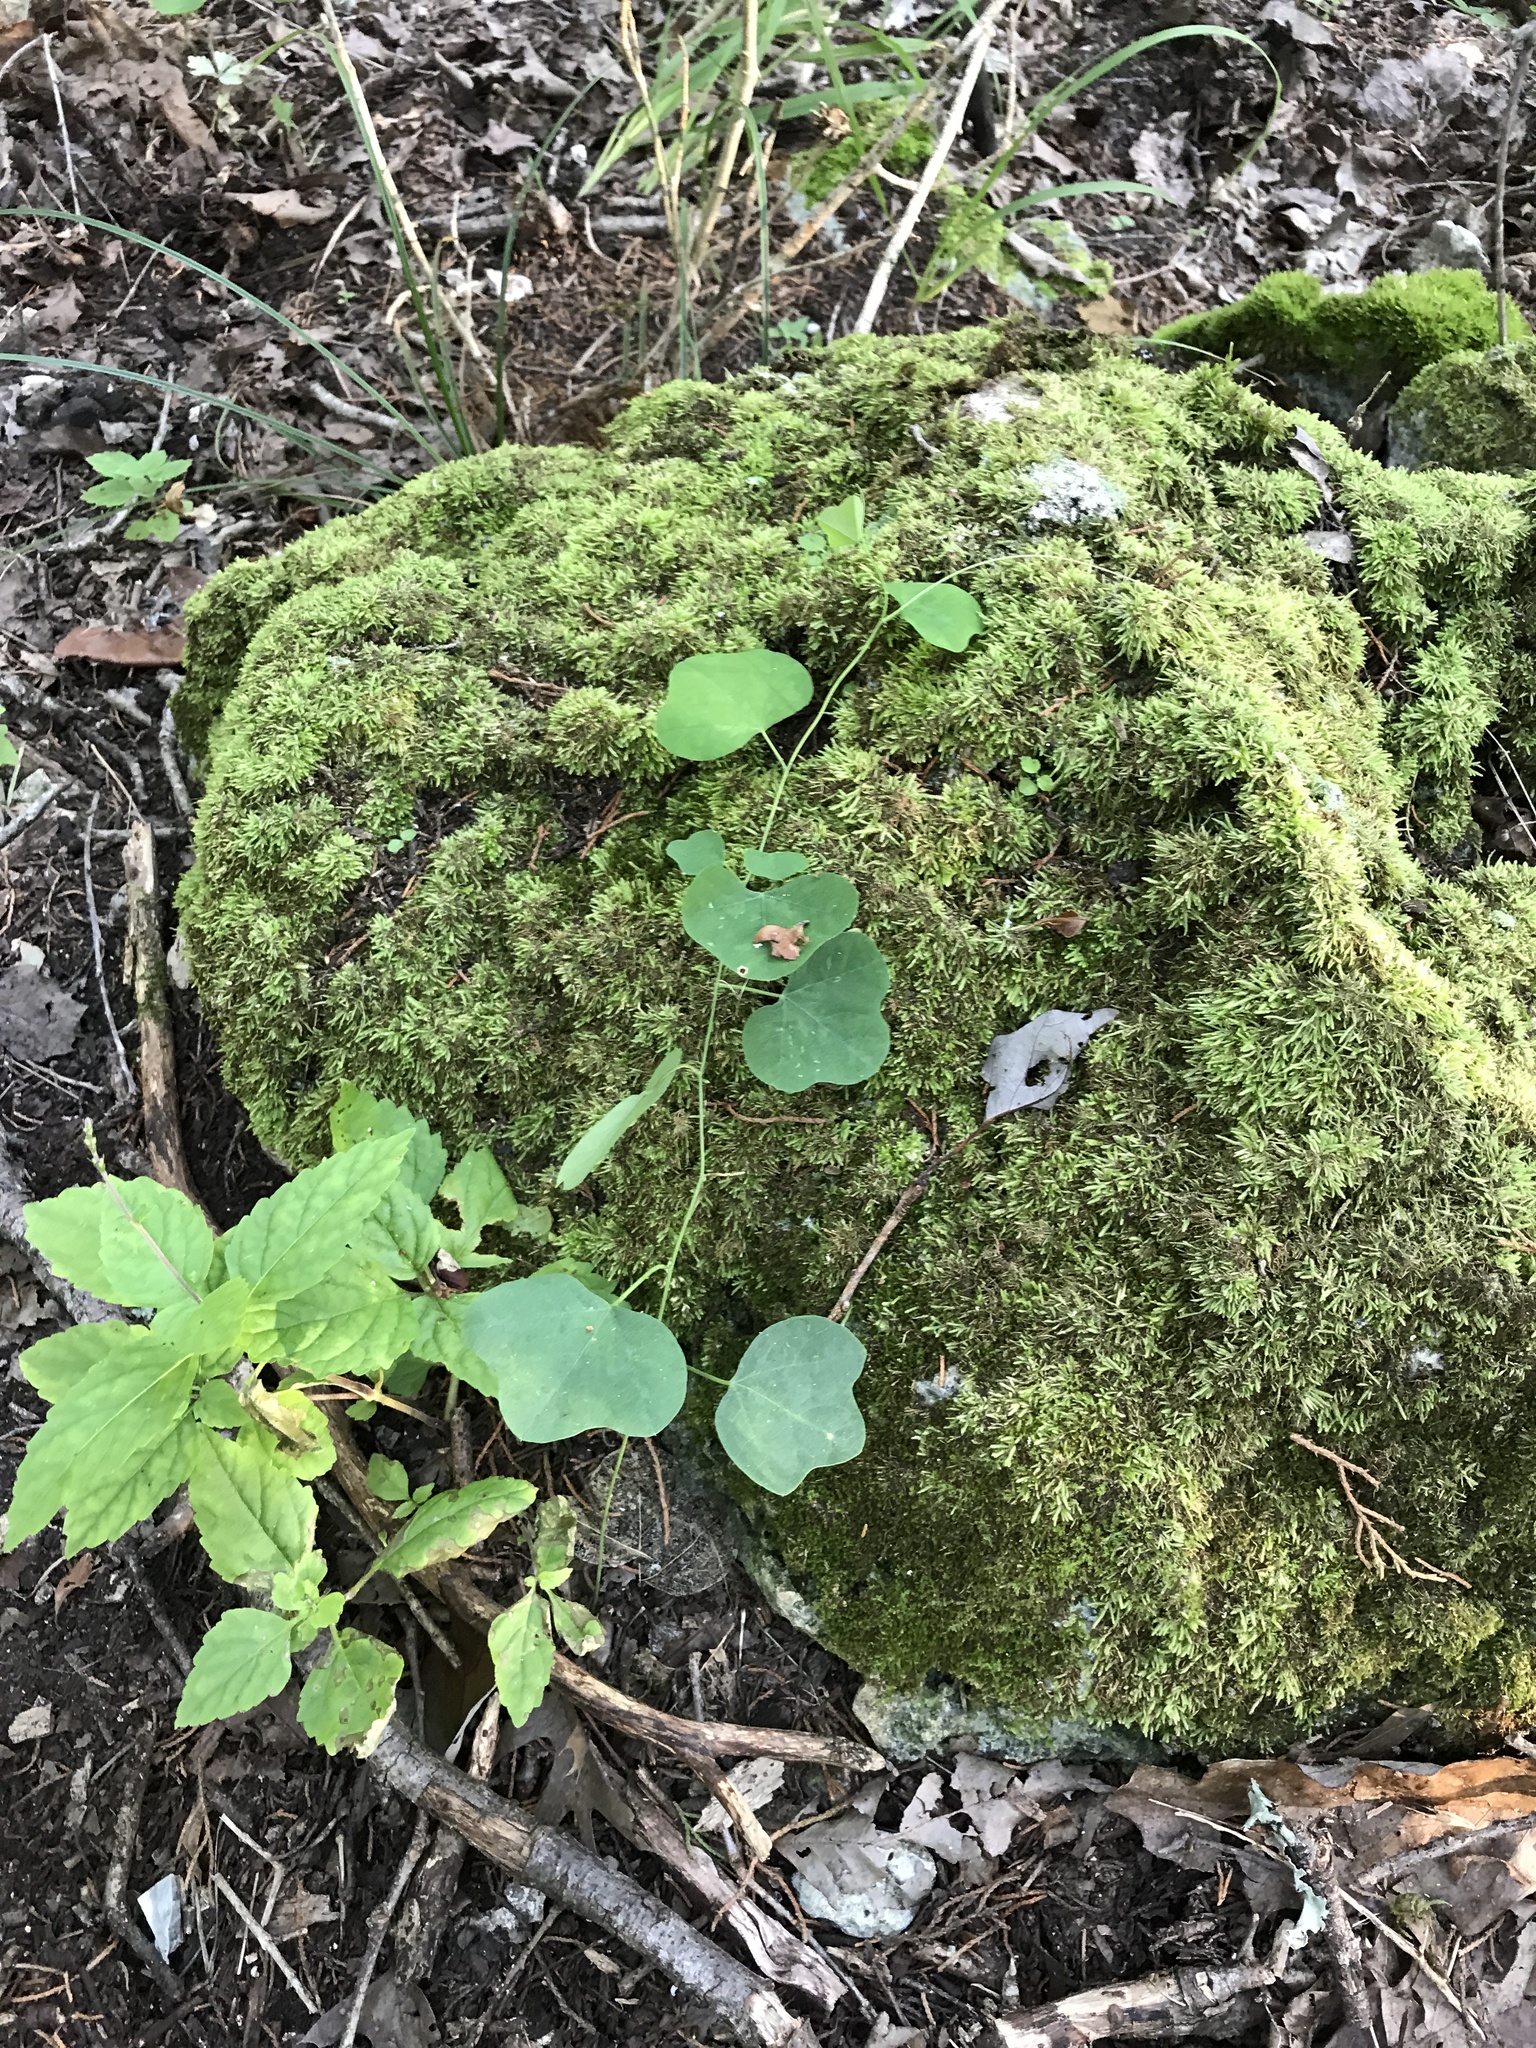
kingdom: Plantae
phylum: Tracheophyta
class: Magnoliopsida
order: Malpighiales
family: Passifloraceae
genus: Passiflora
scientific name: Passiflora lutea
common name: Yellow passionflower
